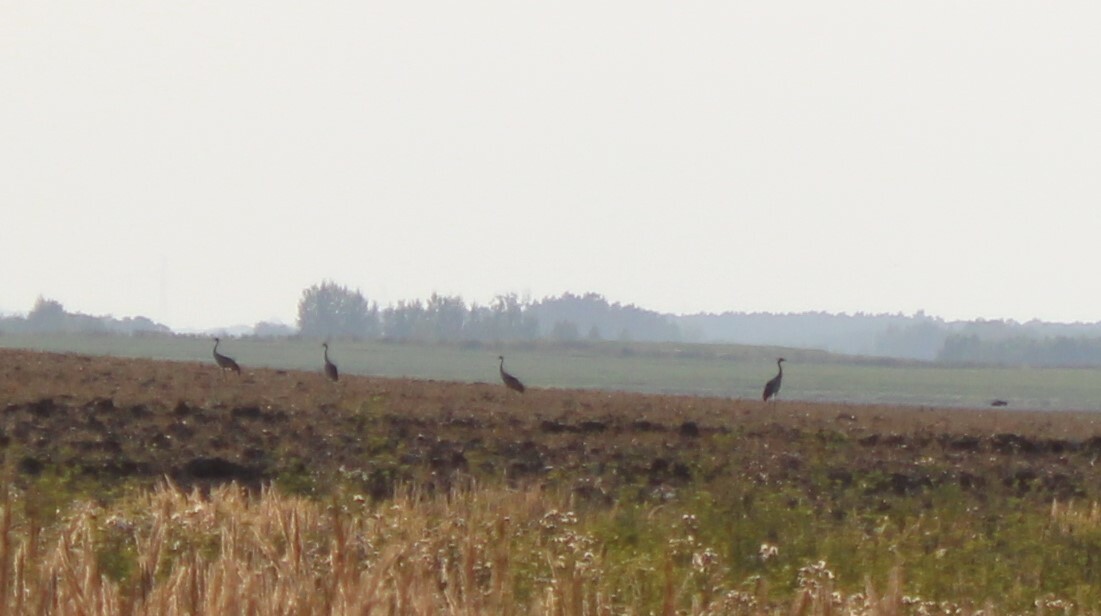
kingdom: Animalia
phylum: Chordata
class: Aves
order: Gruiformes
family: Gruidae
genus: Grus
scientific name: Grus grus
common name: Common crane
